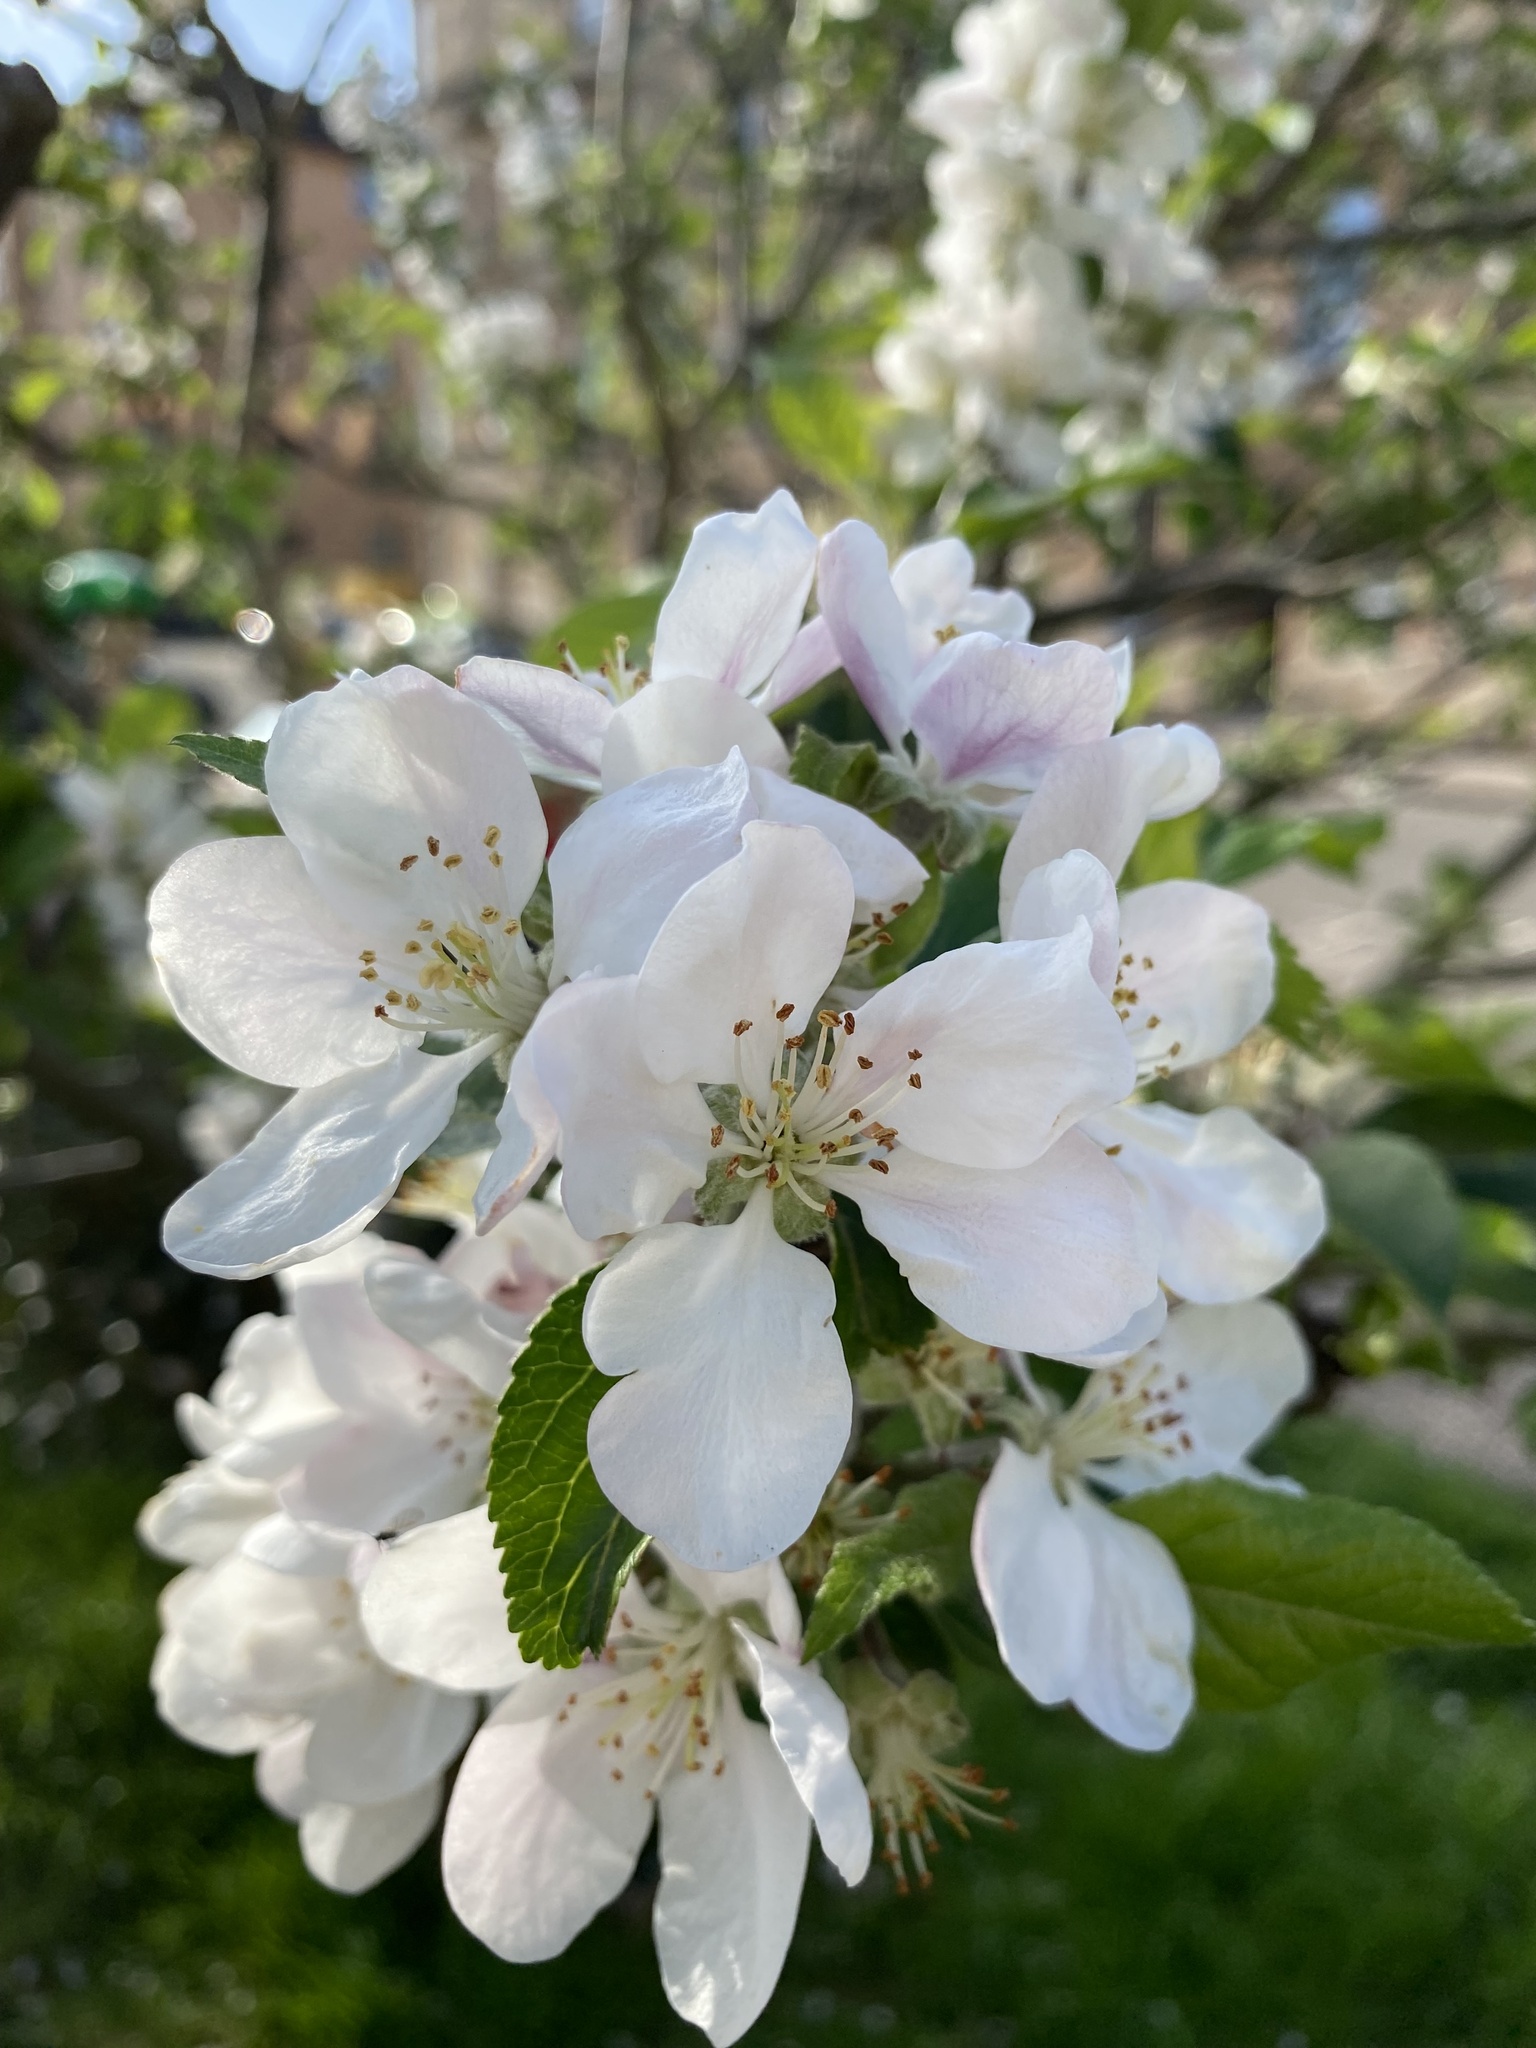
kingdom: Plantae
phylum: Tracheophyta
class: Magnoliopsida
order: Rosales
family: Rosaceae
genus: Malus
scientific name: Malus domestica
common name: Apple
